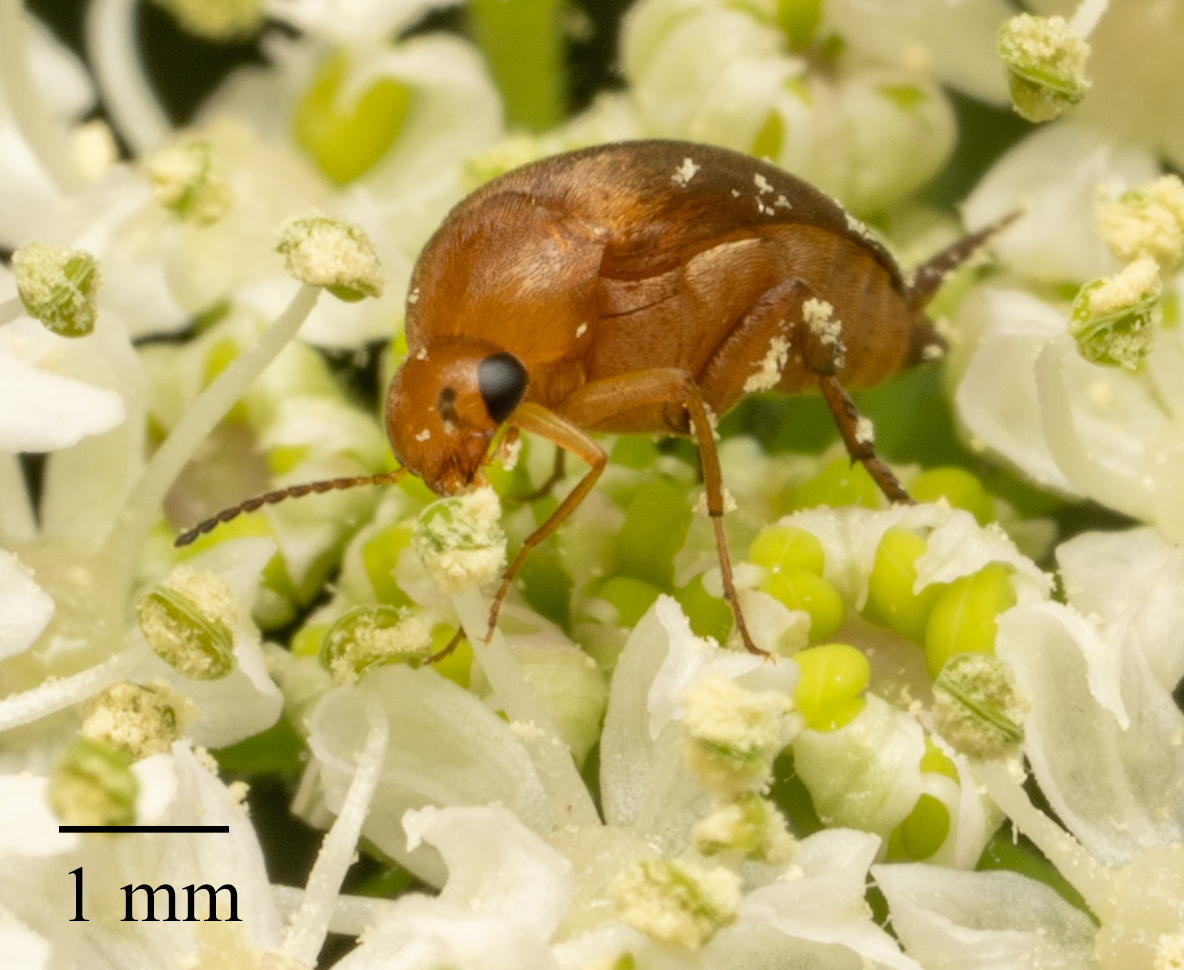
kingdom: Animalia
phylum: Arthropoda
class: Insecta
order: Coleoptera
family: Mordellidae
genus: Mordellistena
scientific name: Mordellistena neuwaldeggiana
